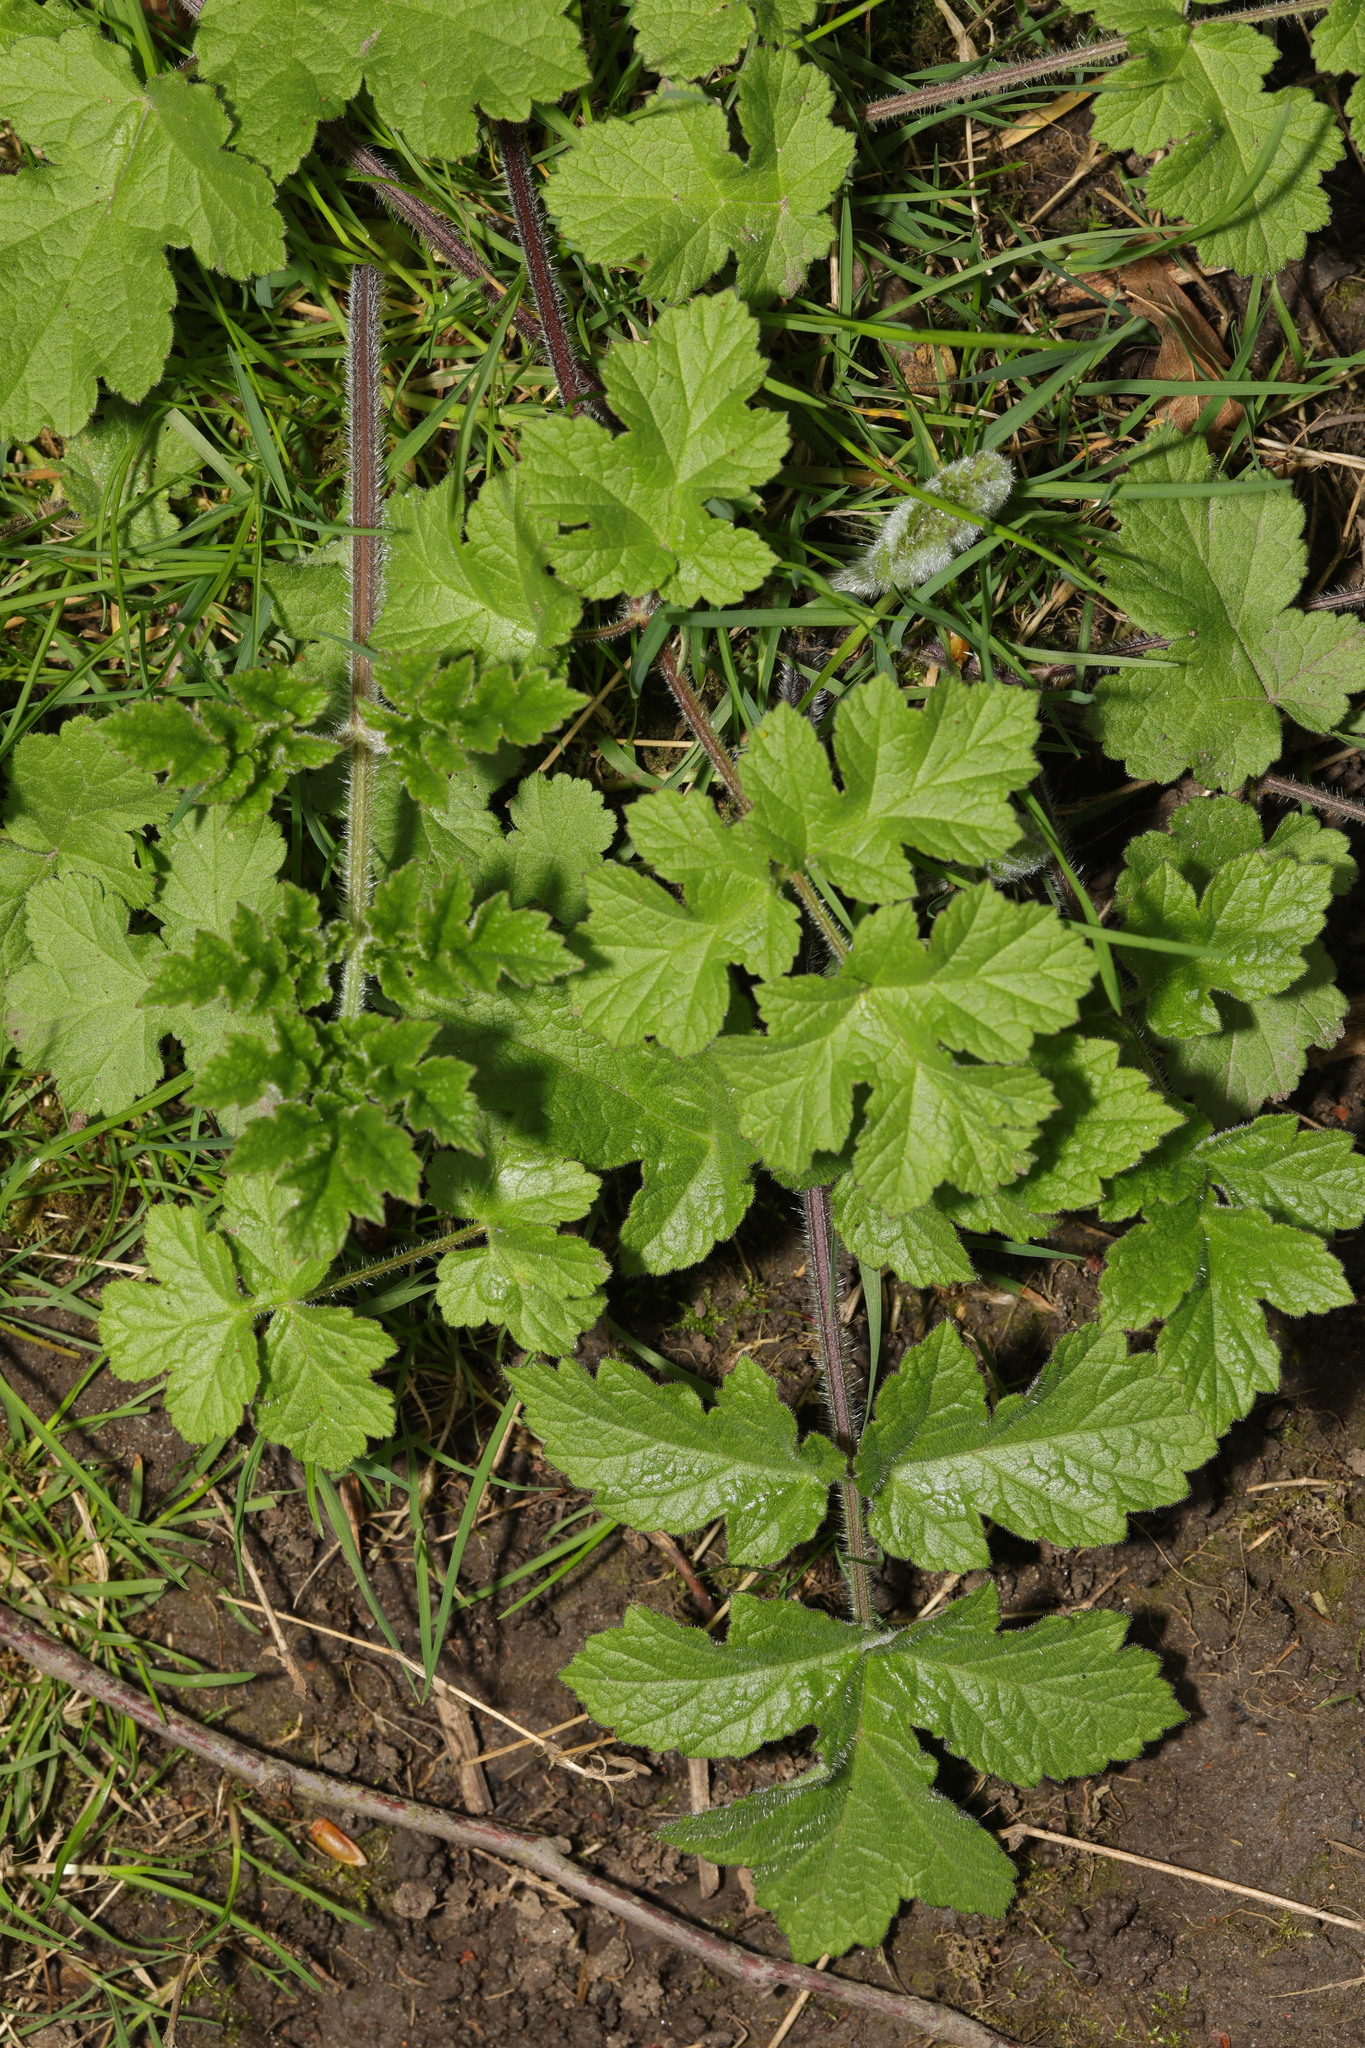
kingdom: Plantae
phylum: Tracheophyta
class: Magnoliopsida
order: Apiales
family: Apiaceae
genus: Heracleum
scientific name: Heracleum sphondylium
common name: Hogweed
